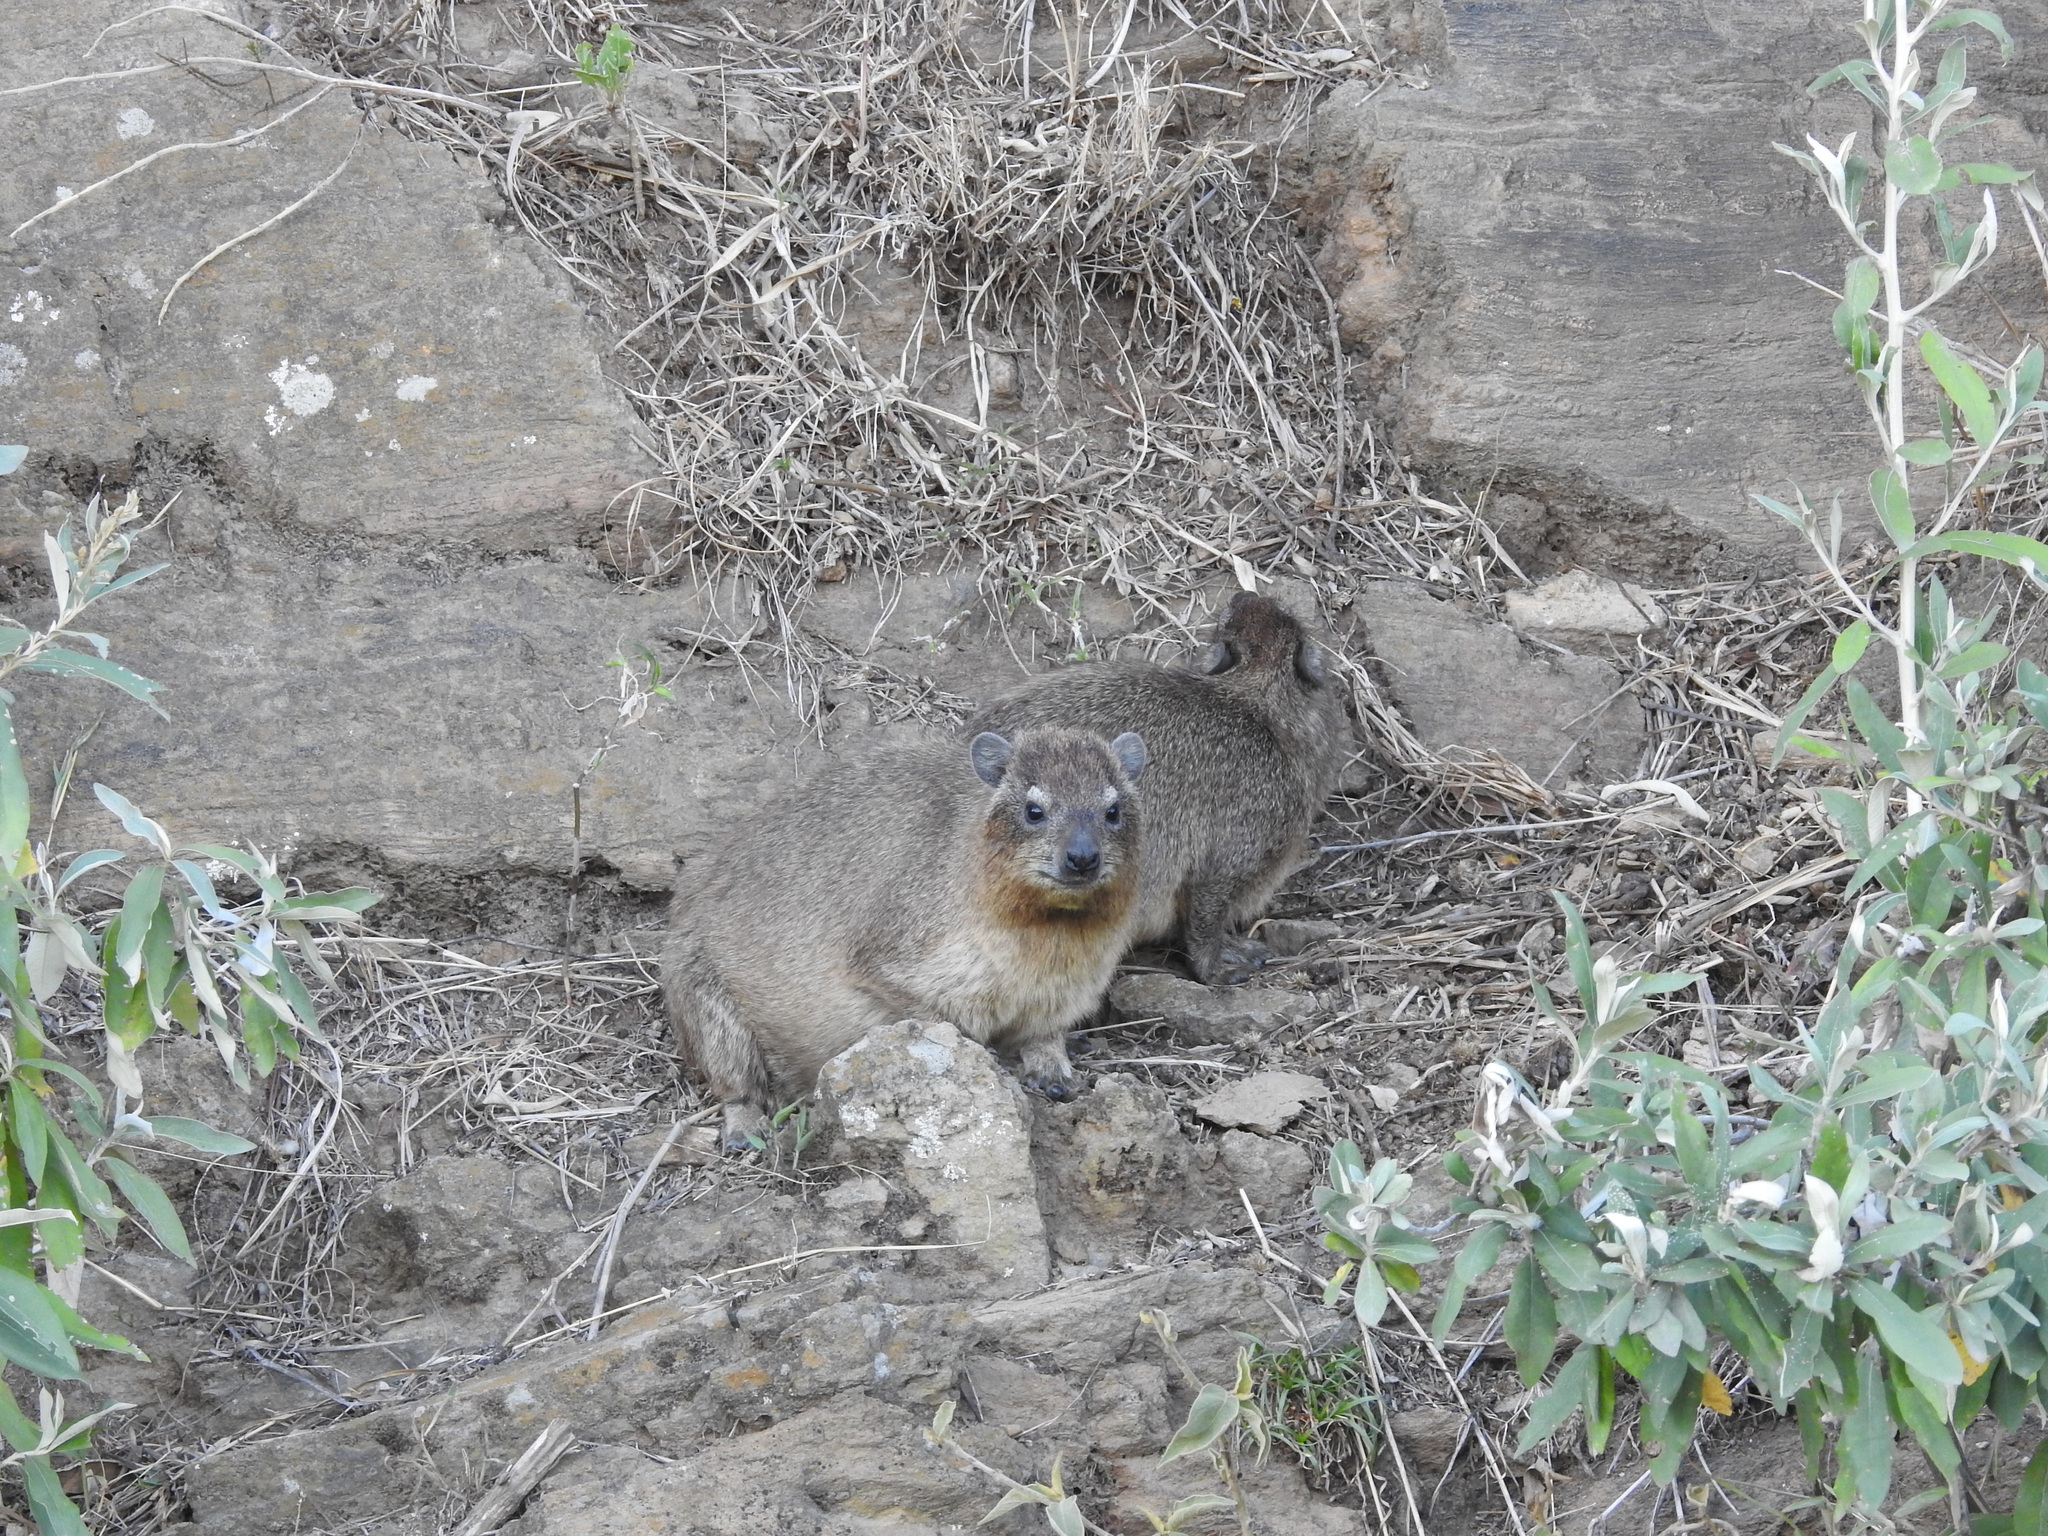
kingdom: Animalia
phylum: Chordata
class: Mammalia
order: Hyracoidea
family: Procaviidae
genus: Procavia
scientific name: Procavia capensis
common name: Rock hyrax
